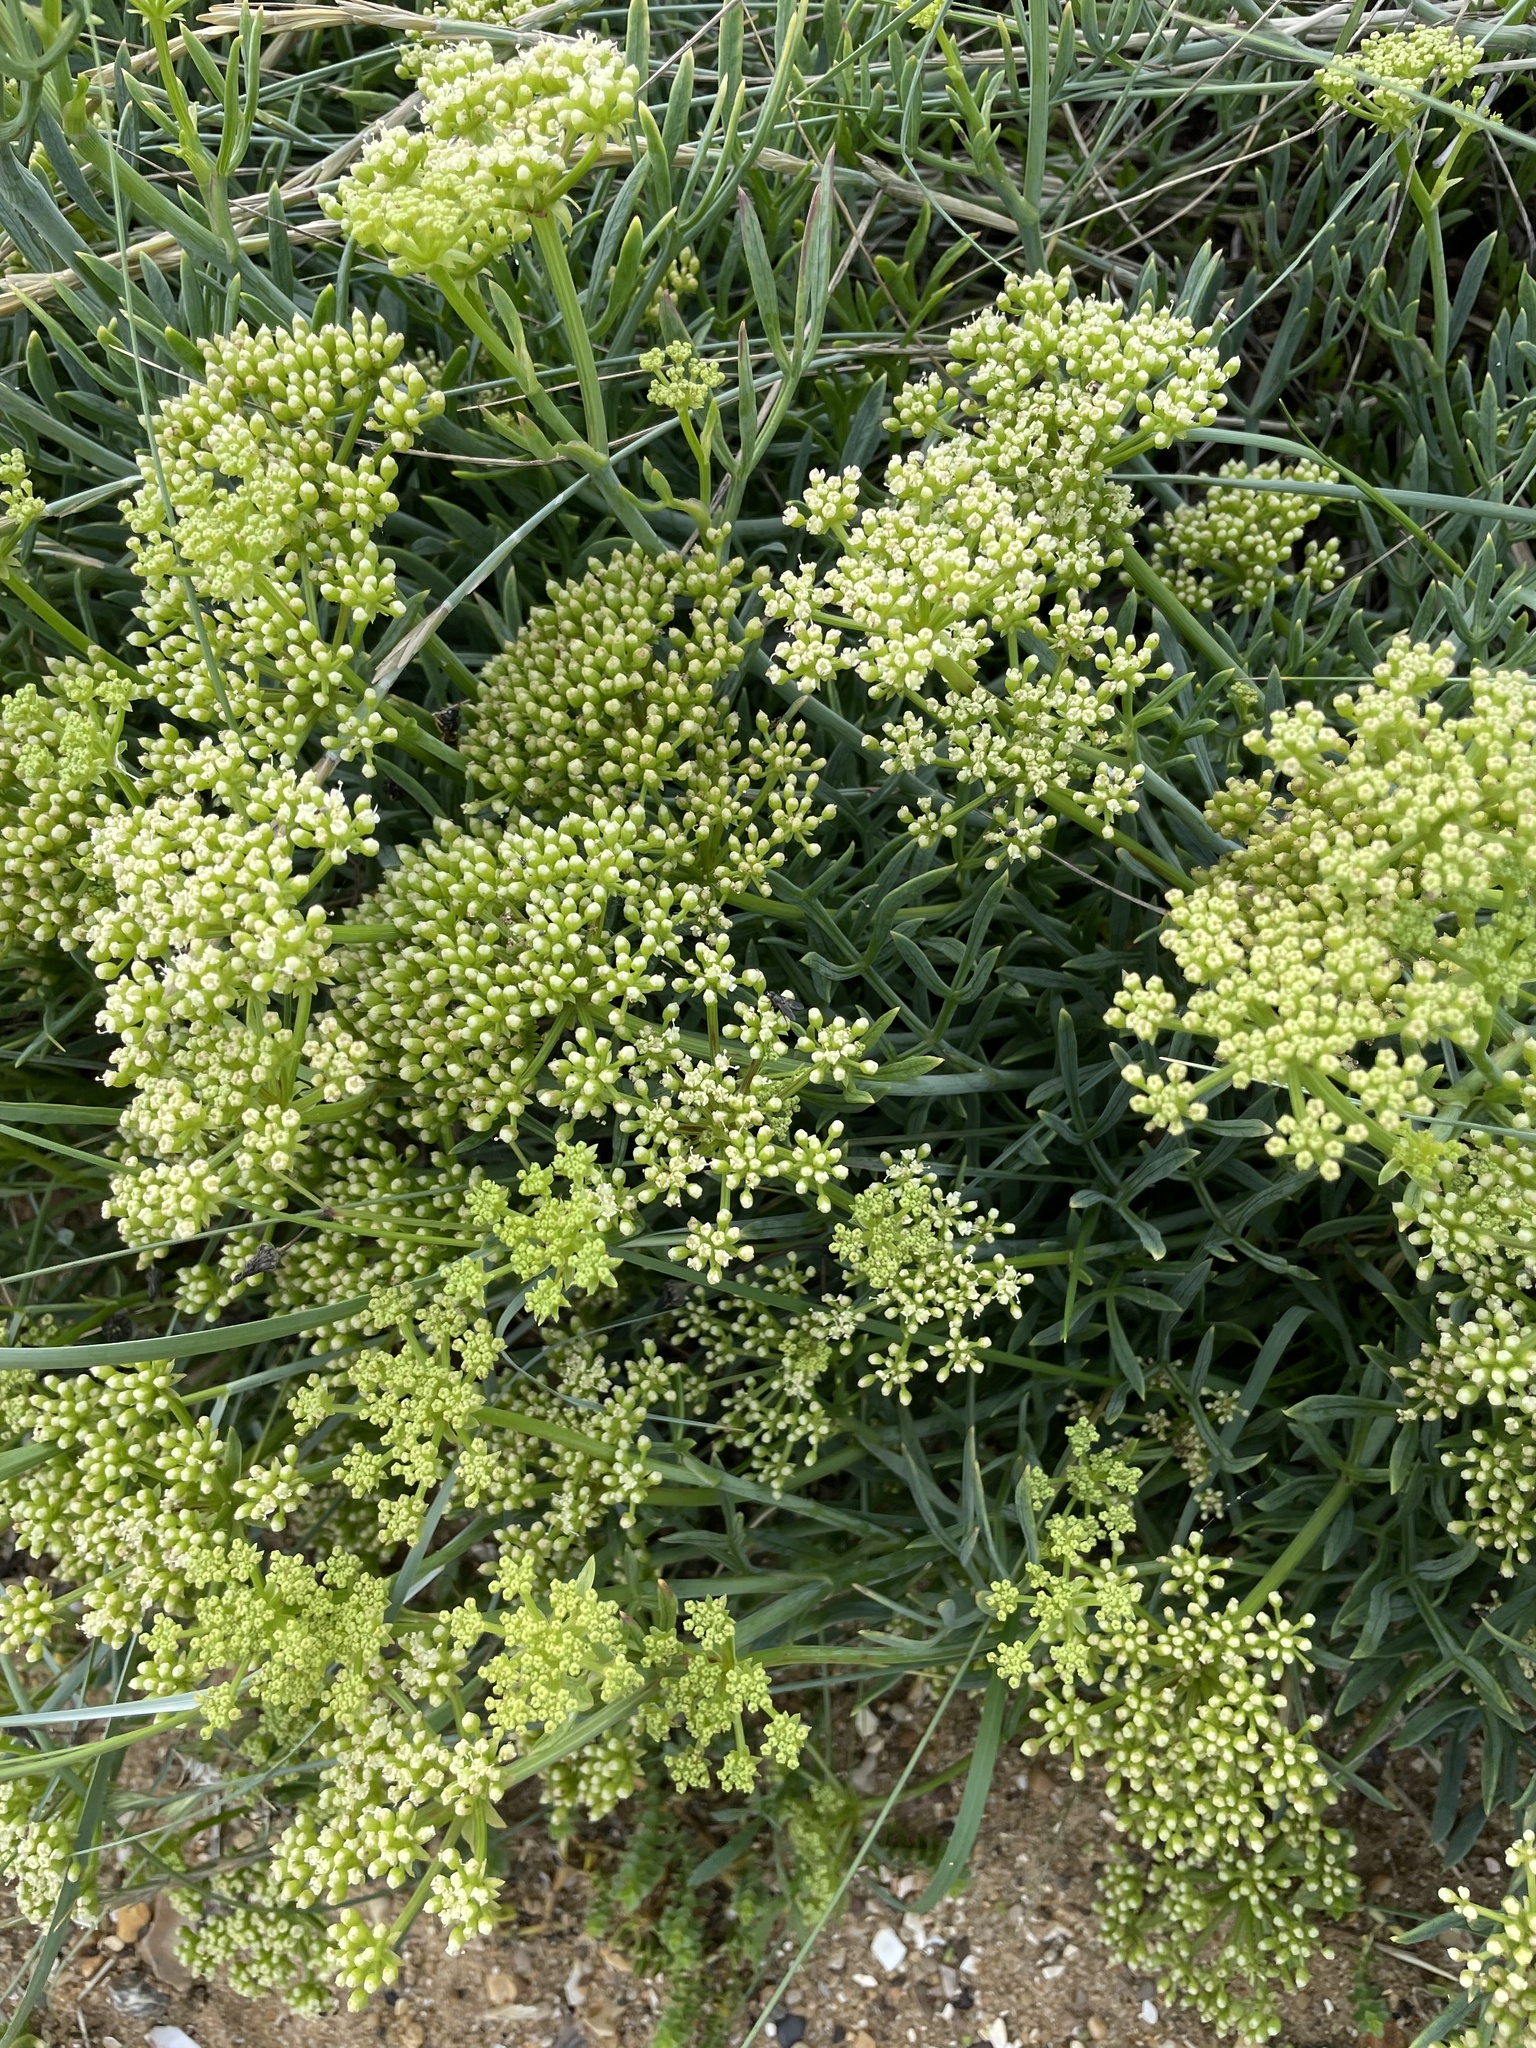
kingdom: Plantae
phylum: Tracheophyta
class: Magnoliopsida
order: Apiales
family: Apiaceae
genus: Crithmum
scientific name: Crithmum maritimum
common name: Rock samphire
